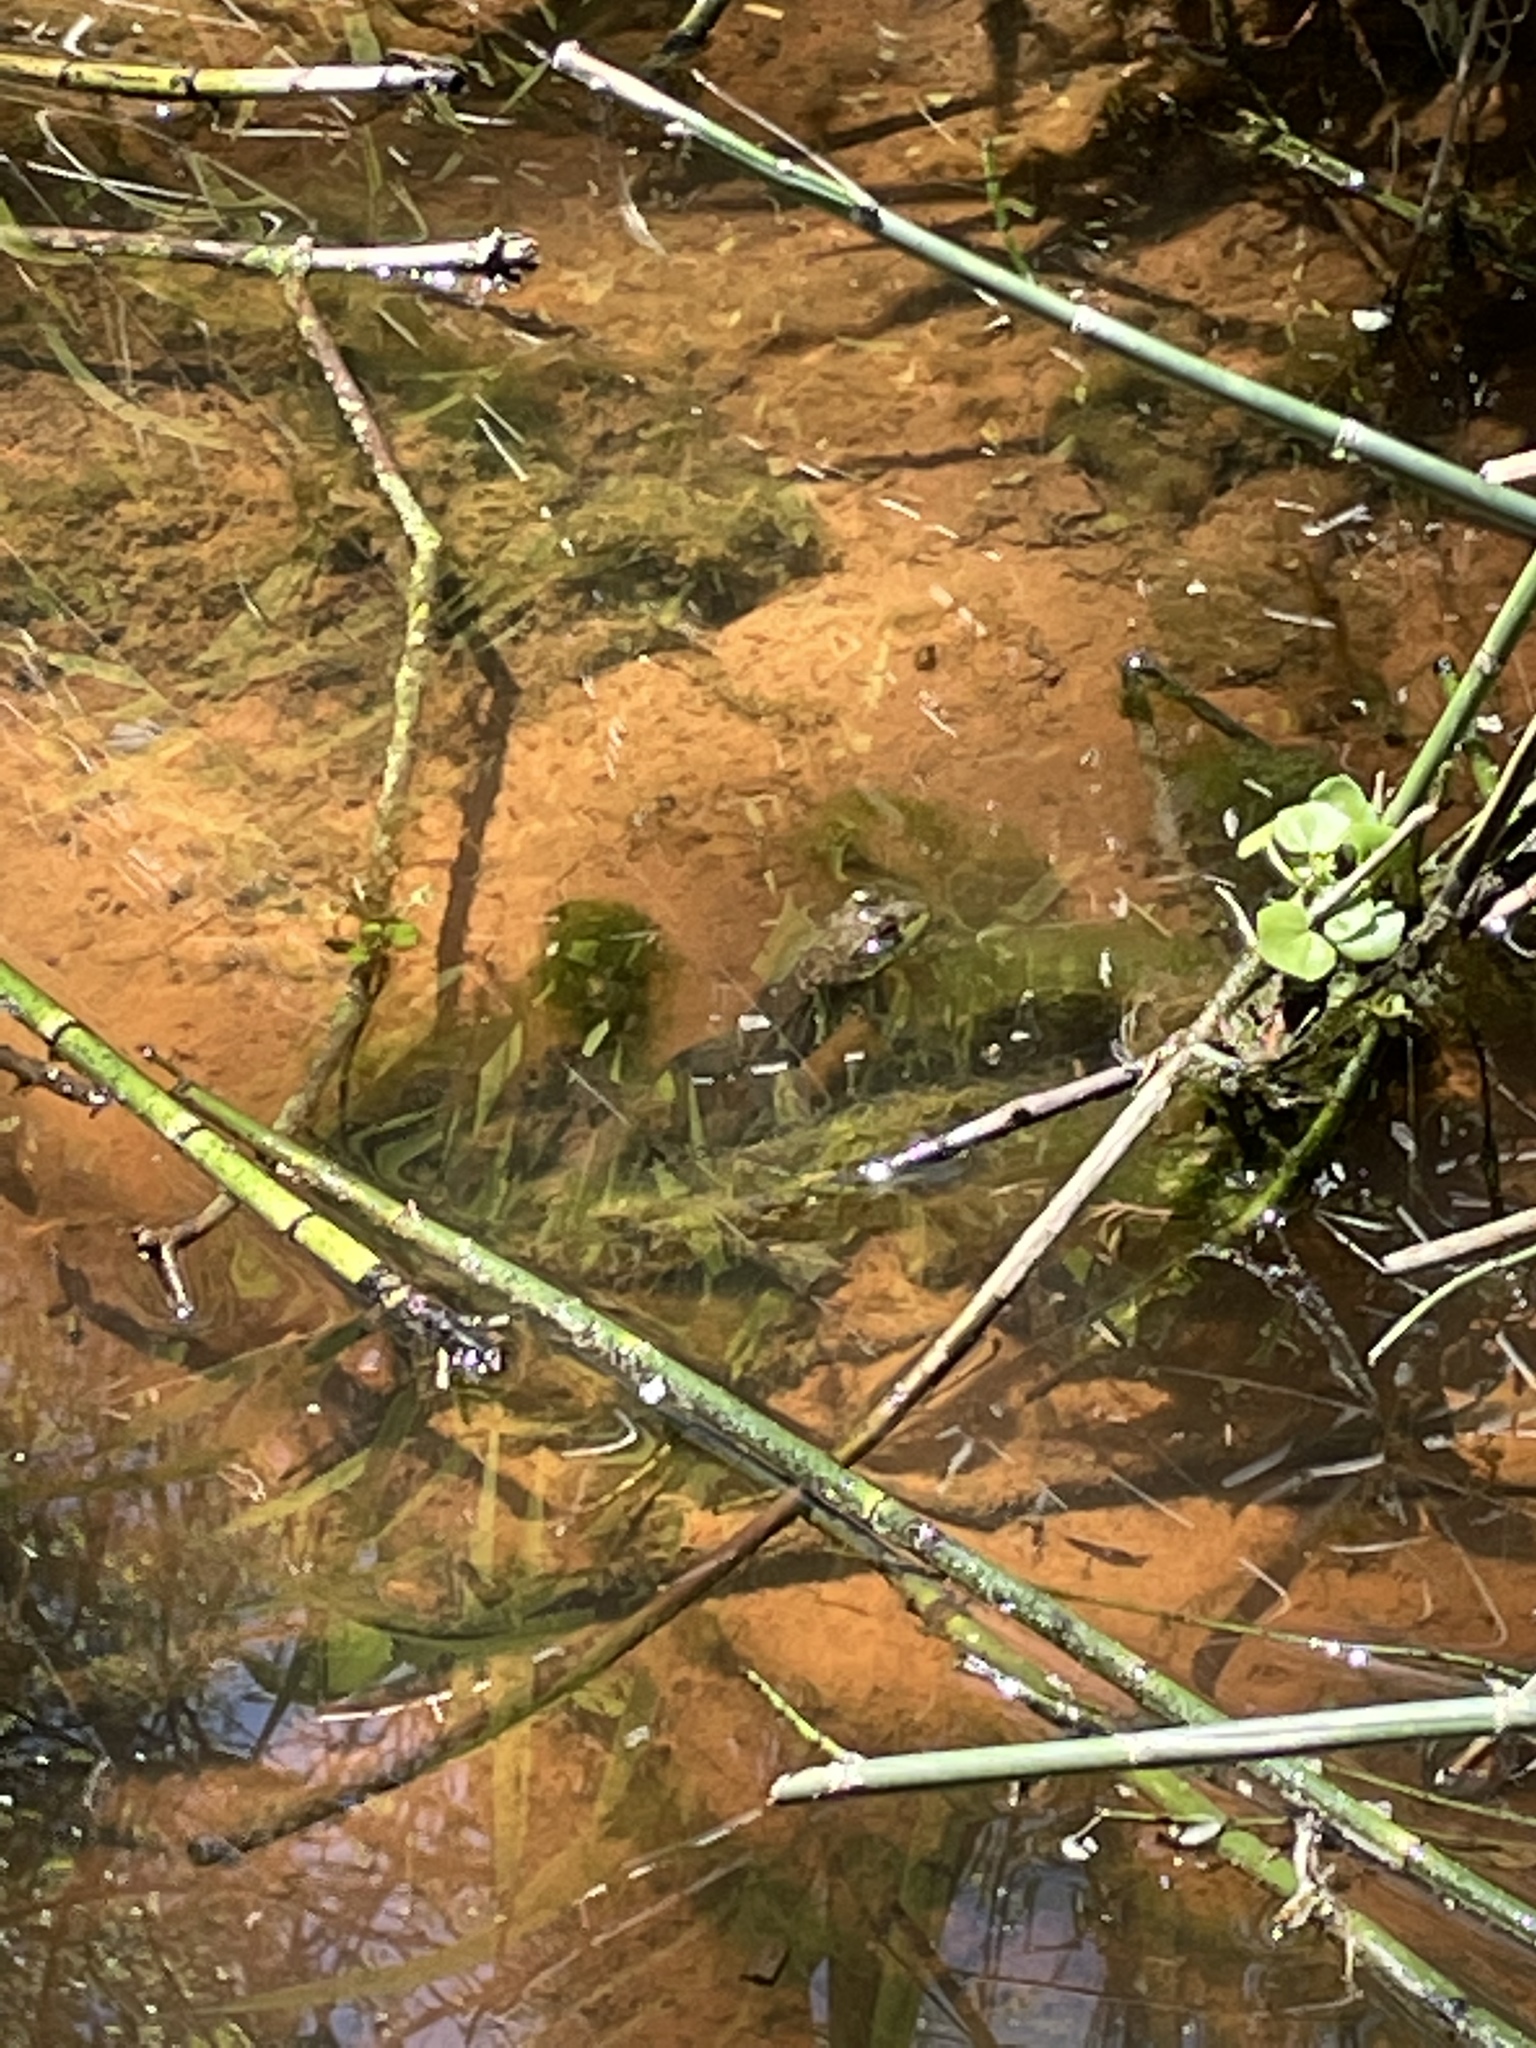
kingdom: Animalia
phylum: Chordata
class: Amphibia
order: Anura
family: Ranidae
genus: Lithobates
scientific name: Lithobates catesbeianus
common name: American bullfrog
